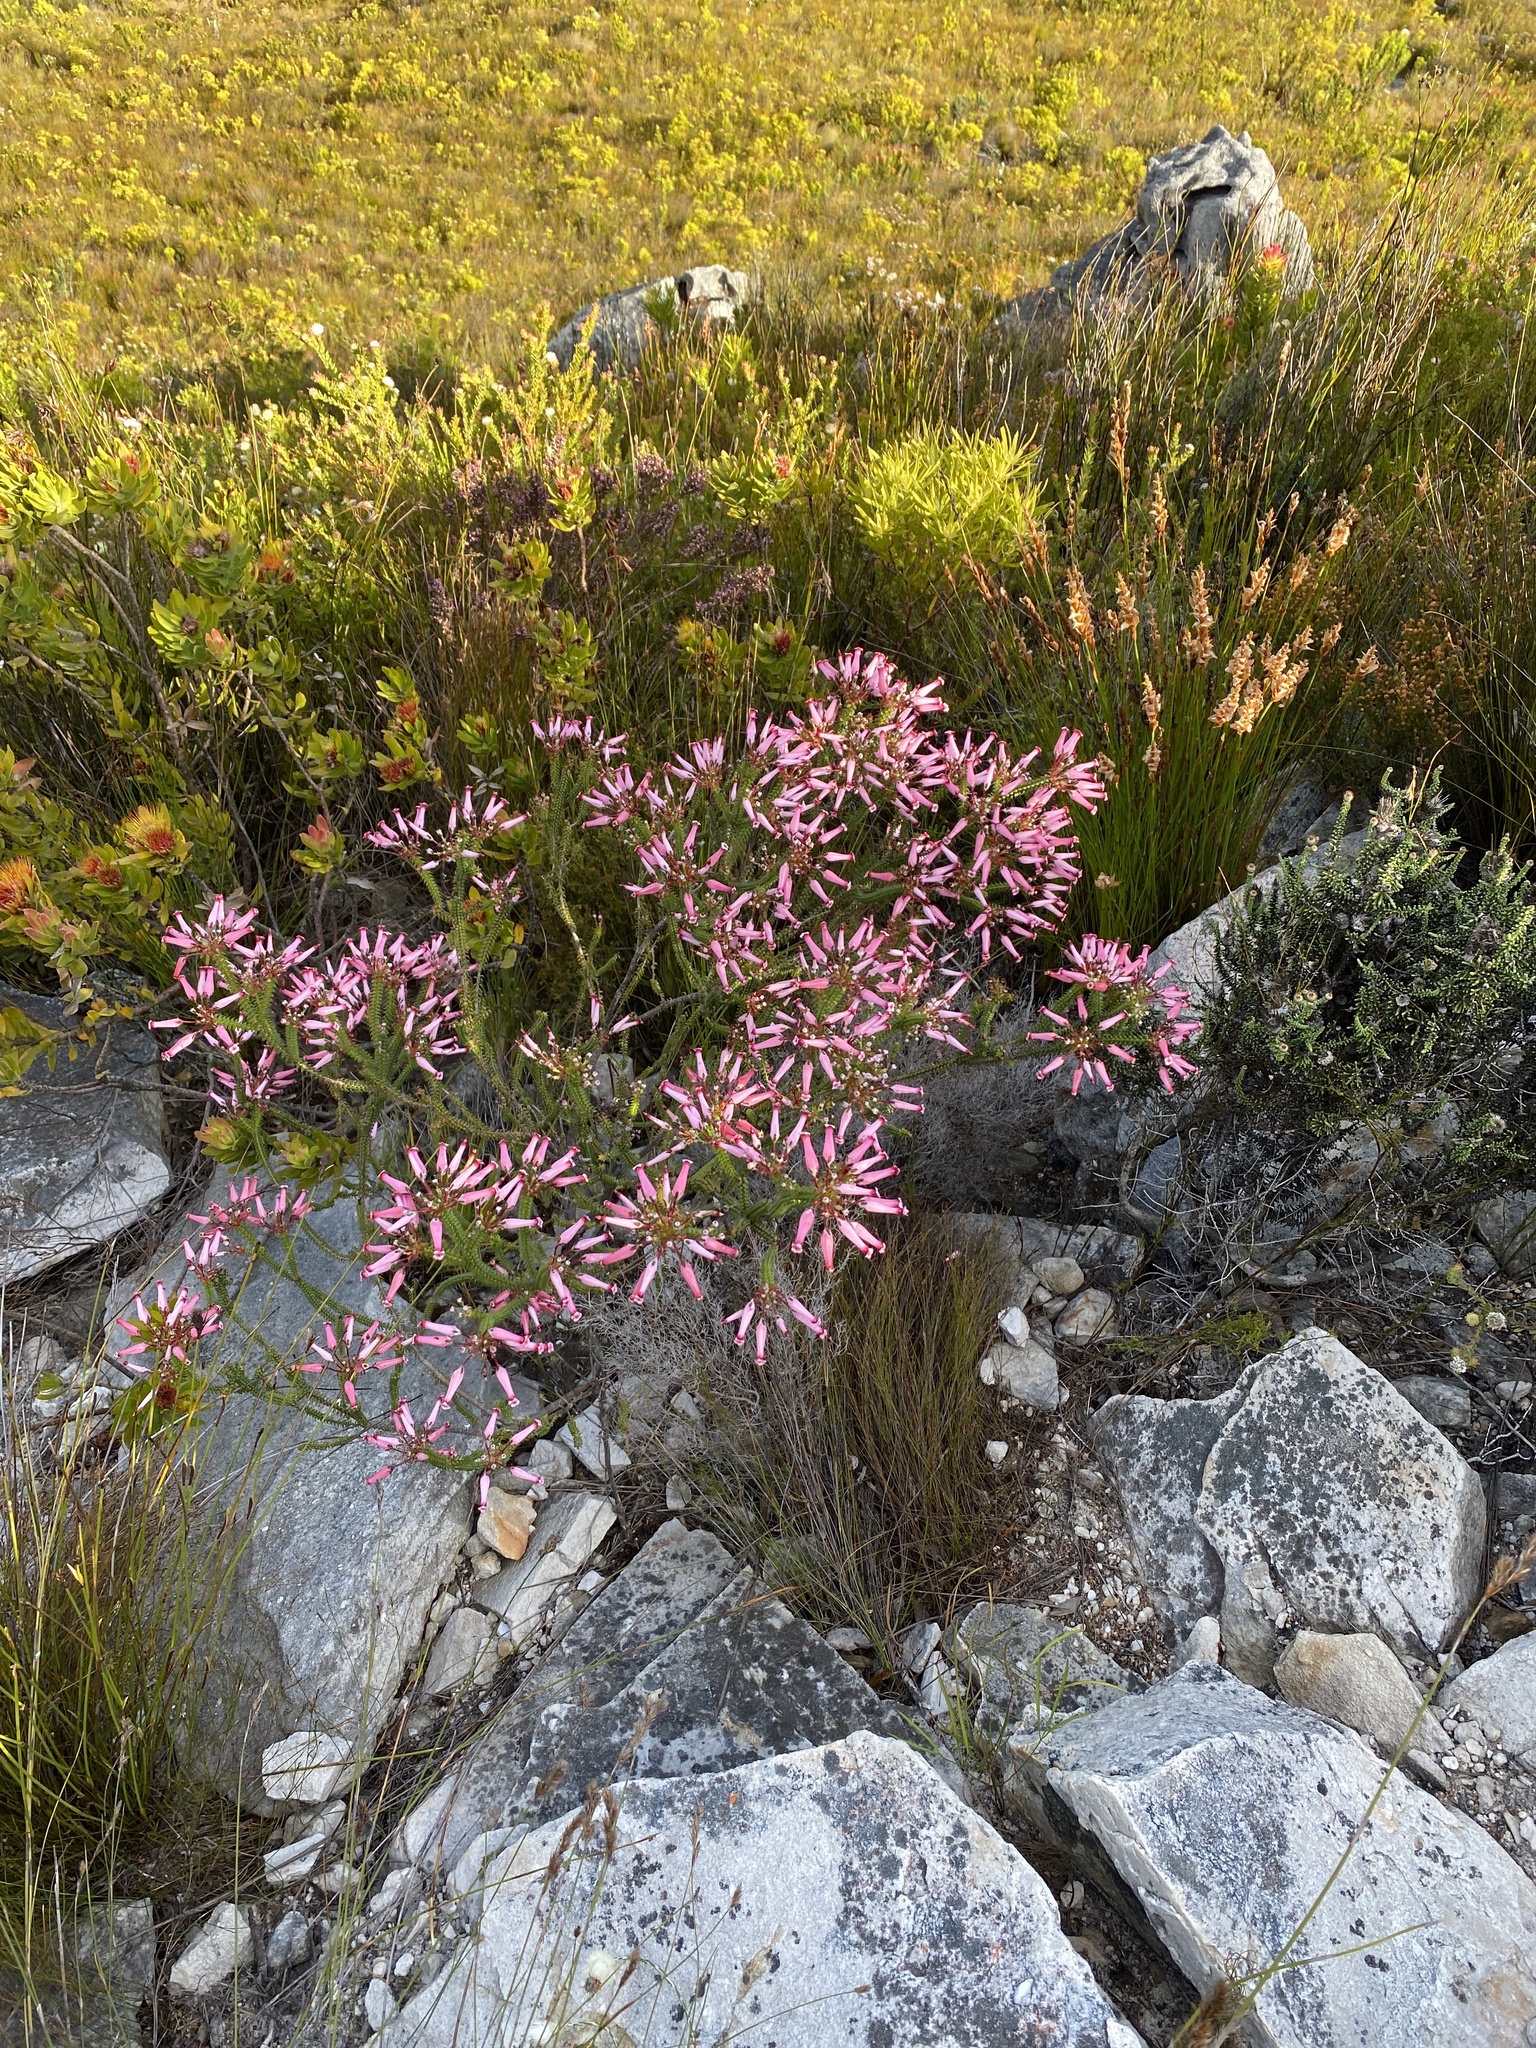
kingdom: Plantae
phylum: Tracheophyta
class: Magnoliopsida
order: Ericales
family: Ericaceae
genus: Erica
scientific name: Erica retorta
